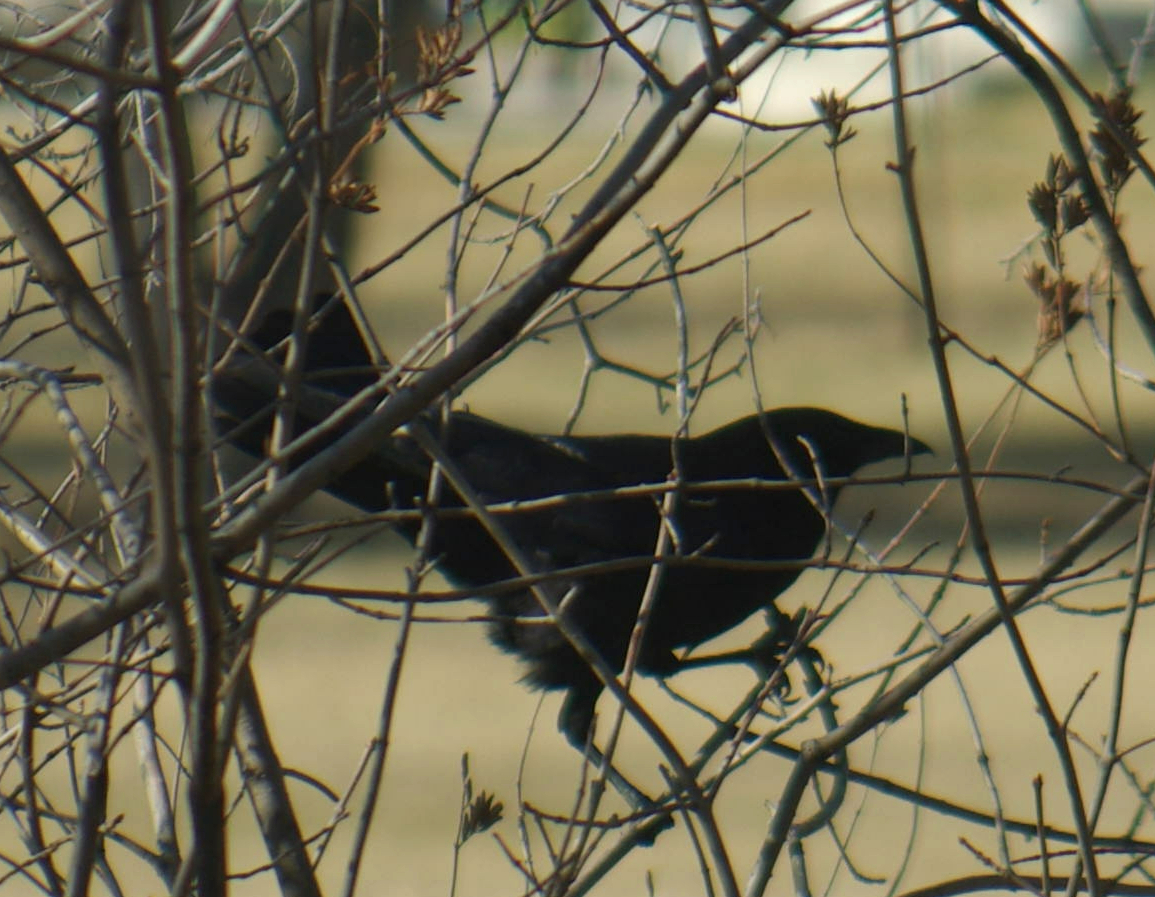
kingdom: Animalia
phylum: Chordata
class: Aves
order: Passeriformes
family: Corvidae
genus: Corvus
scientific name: Corvus brachyrhynchos
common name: American crow
